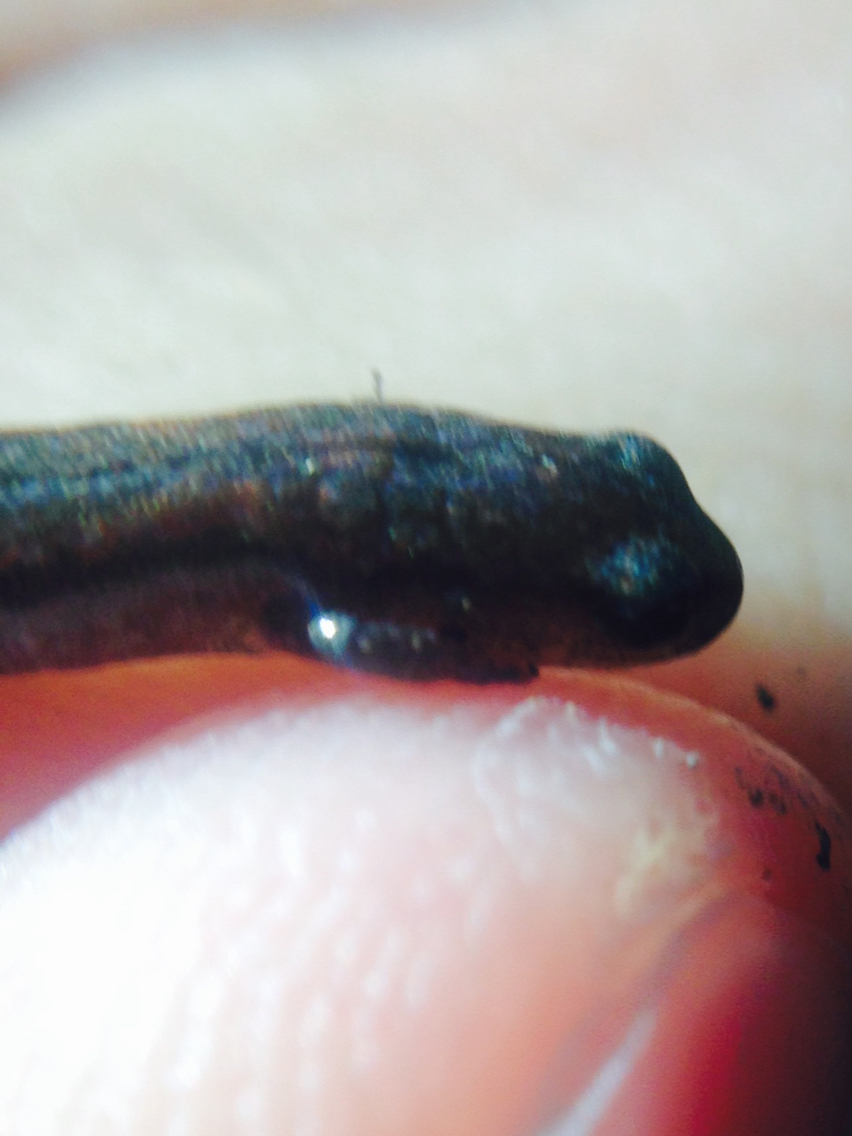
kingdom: Animalia
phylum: Chordata
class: Amphibia
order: Caudata
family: Plethodontidae
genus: Batrachoseps
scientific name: Batrachoseps attenuatus
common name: California slender salamander
